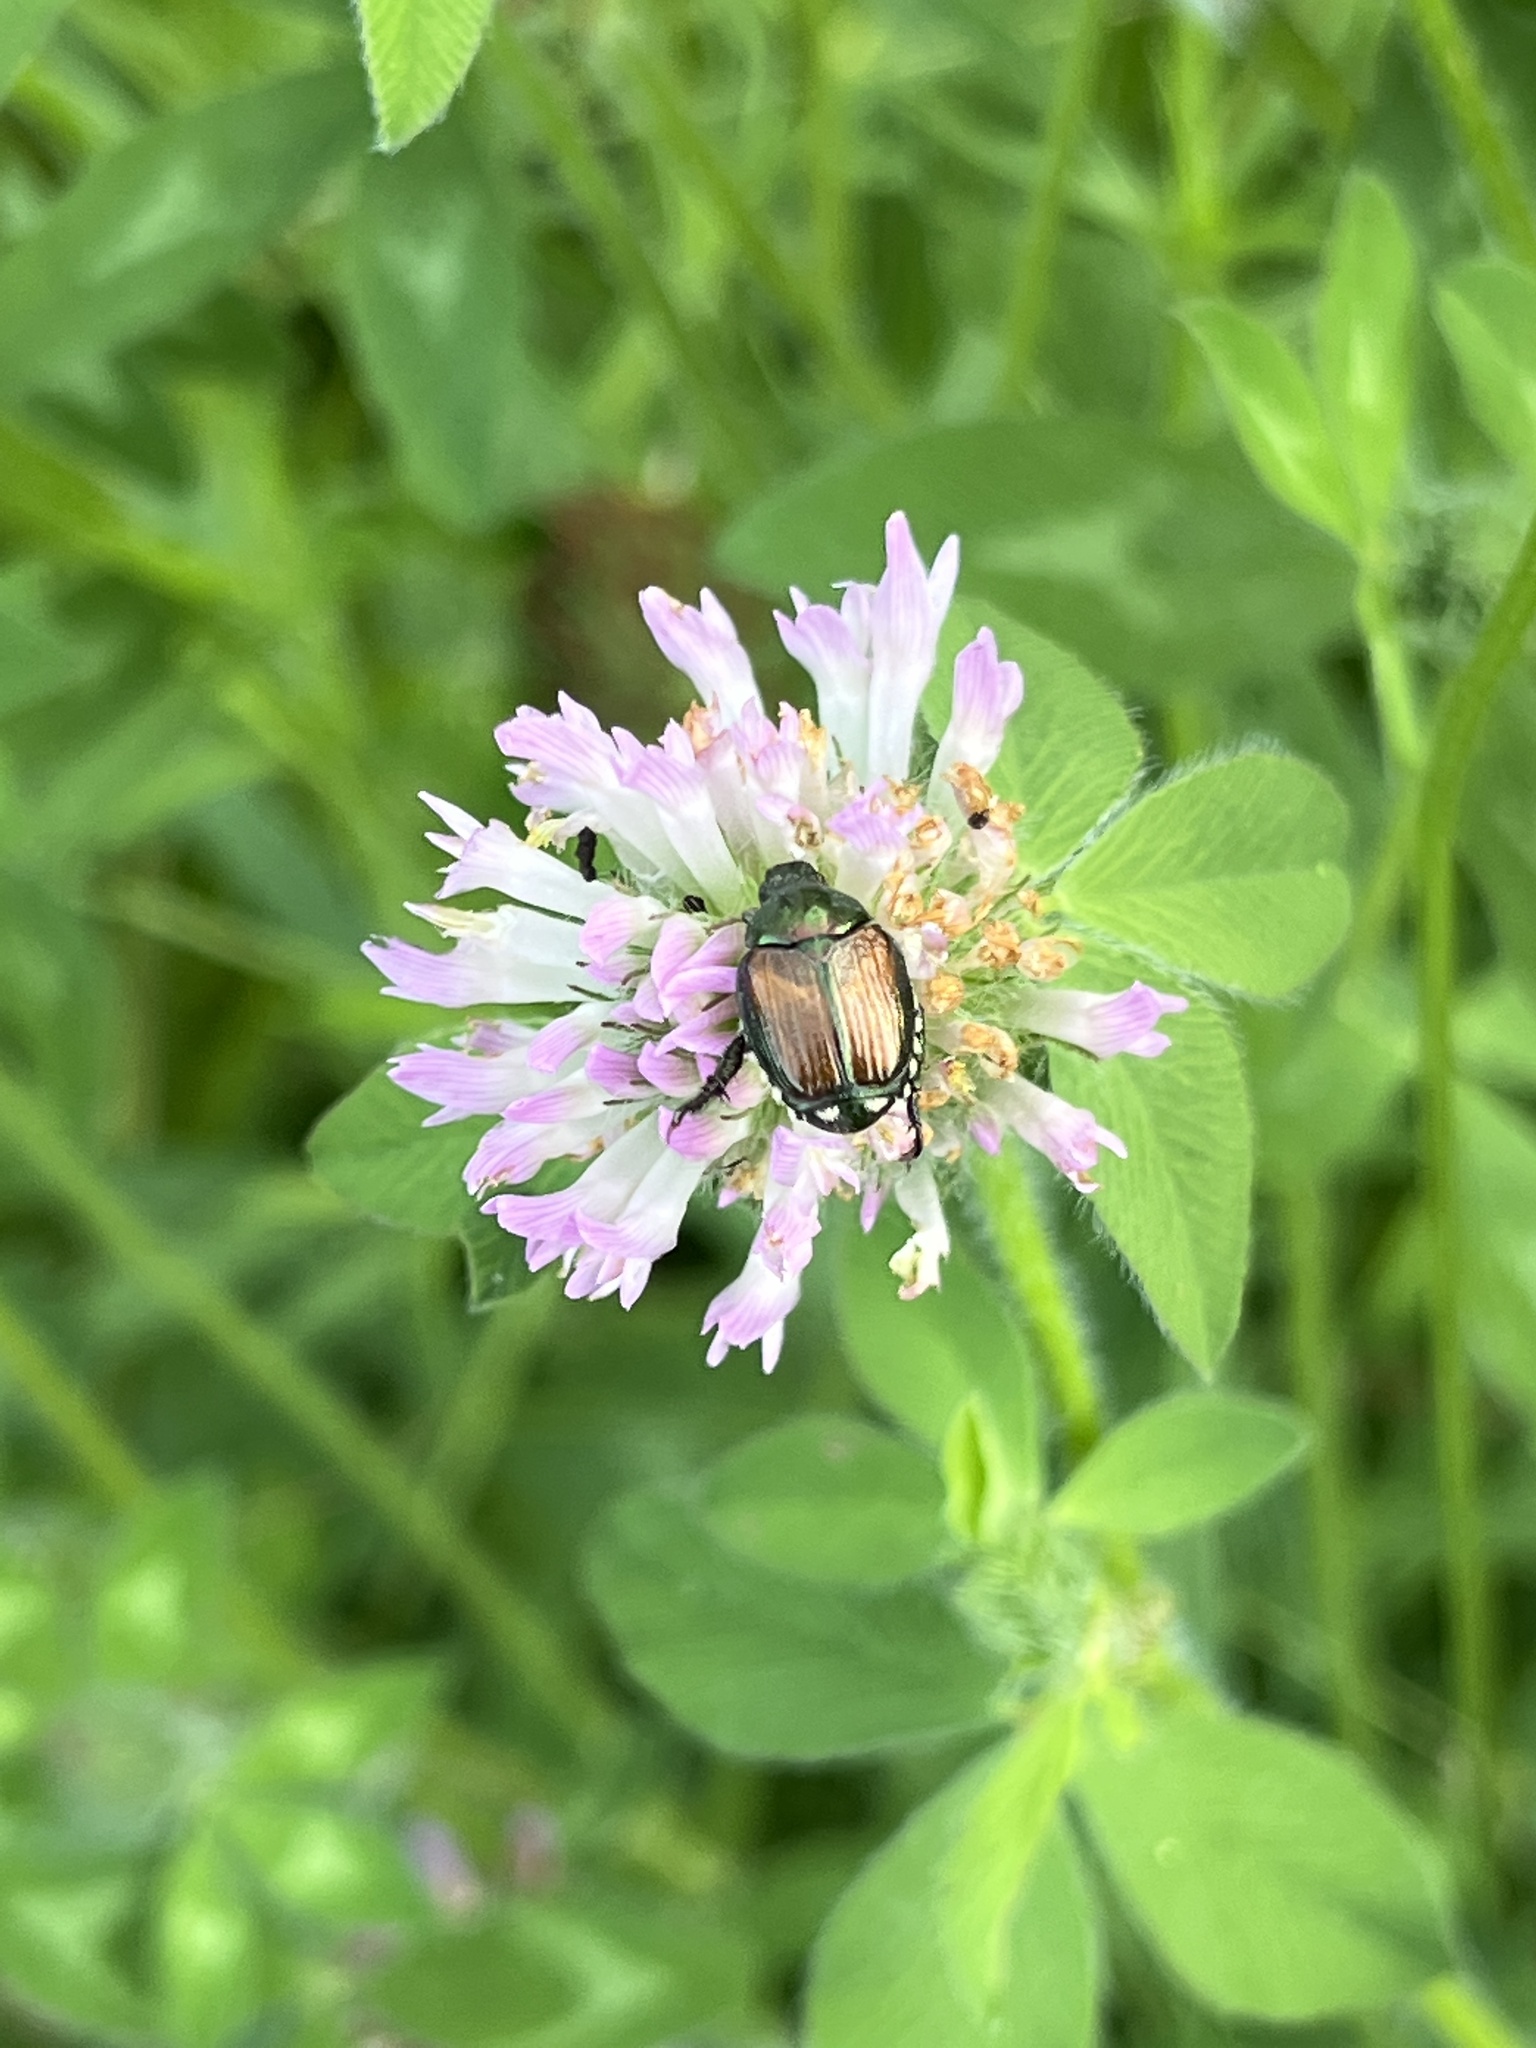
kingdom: Animalia
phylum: Arthropoda
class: Insecta
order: Coleoptera
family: Scarabaeidae
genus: Popillia
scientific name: Popillia japonica
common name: Japanese beetle
